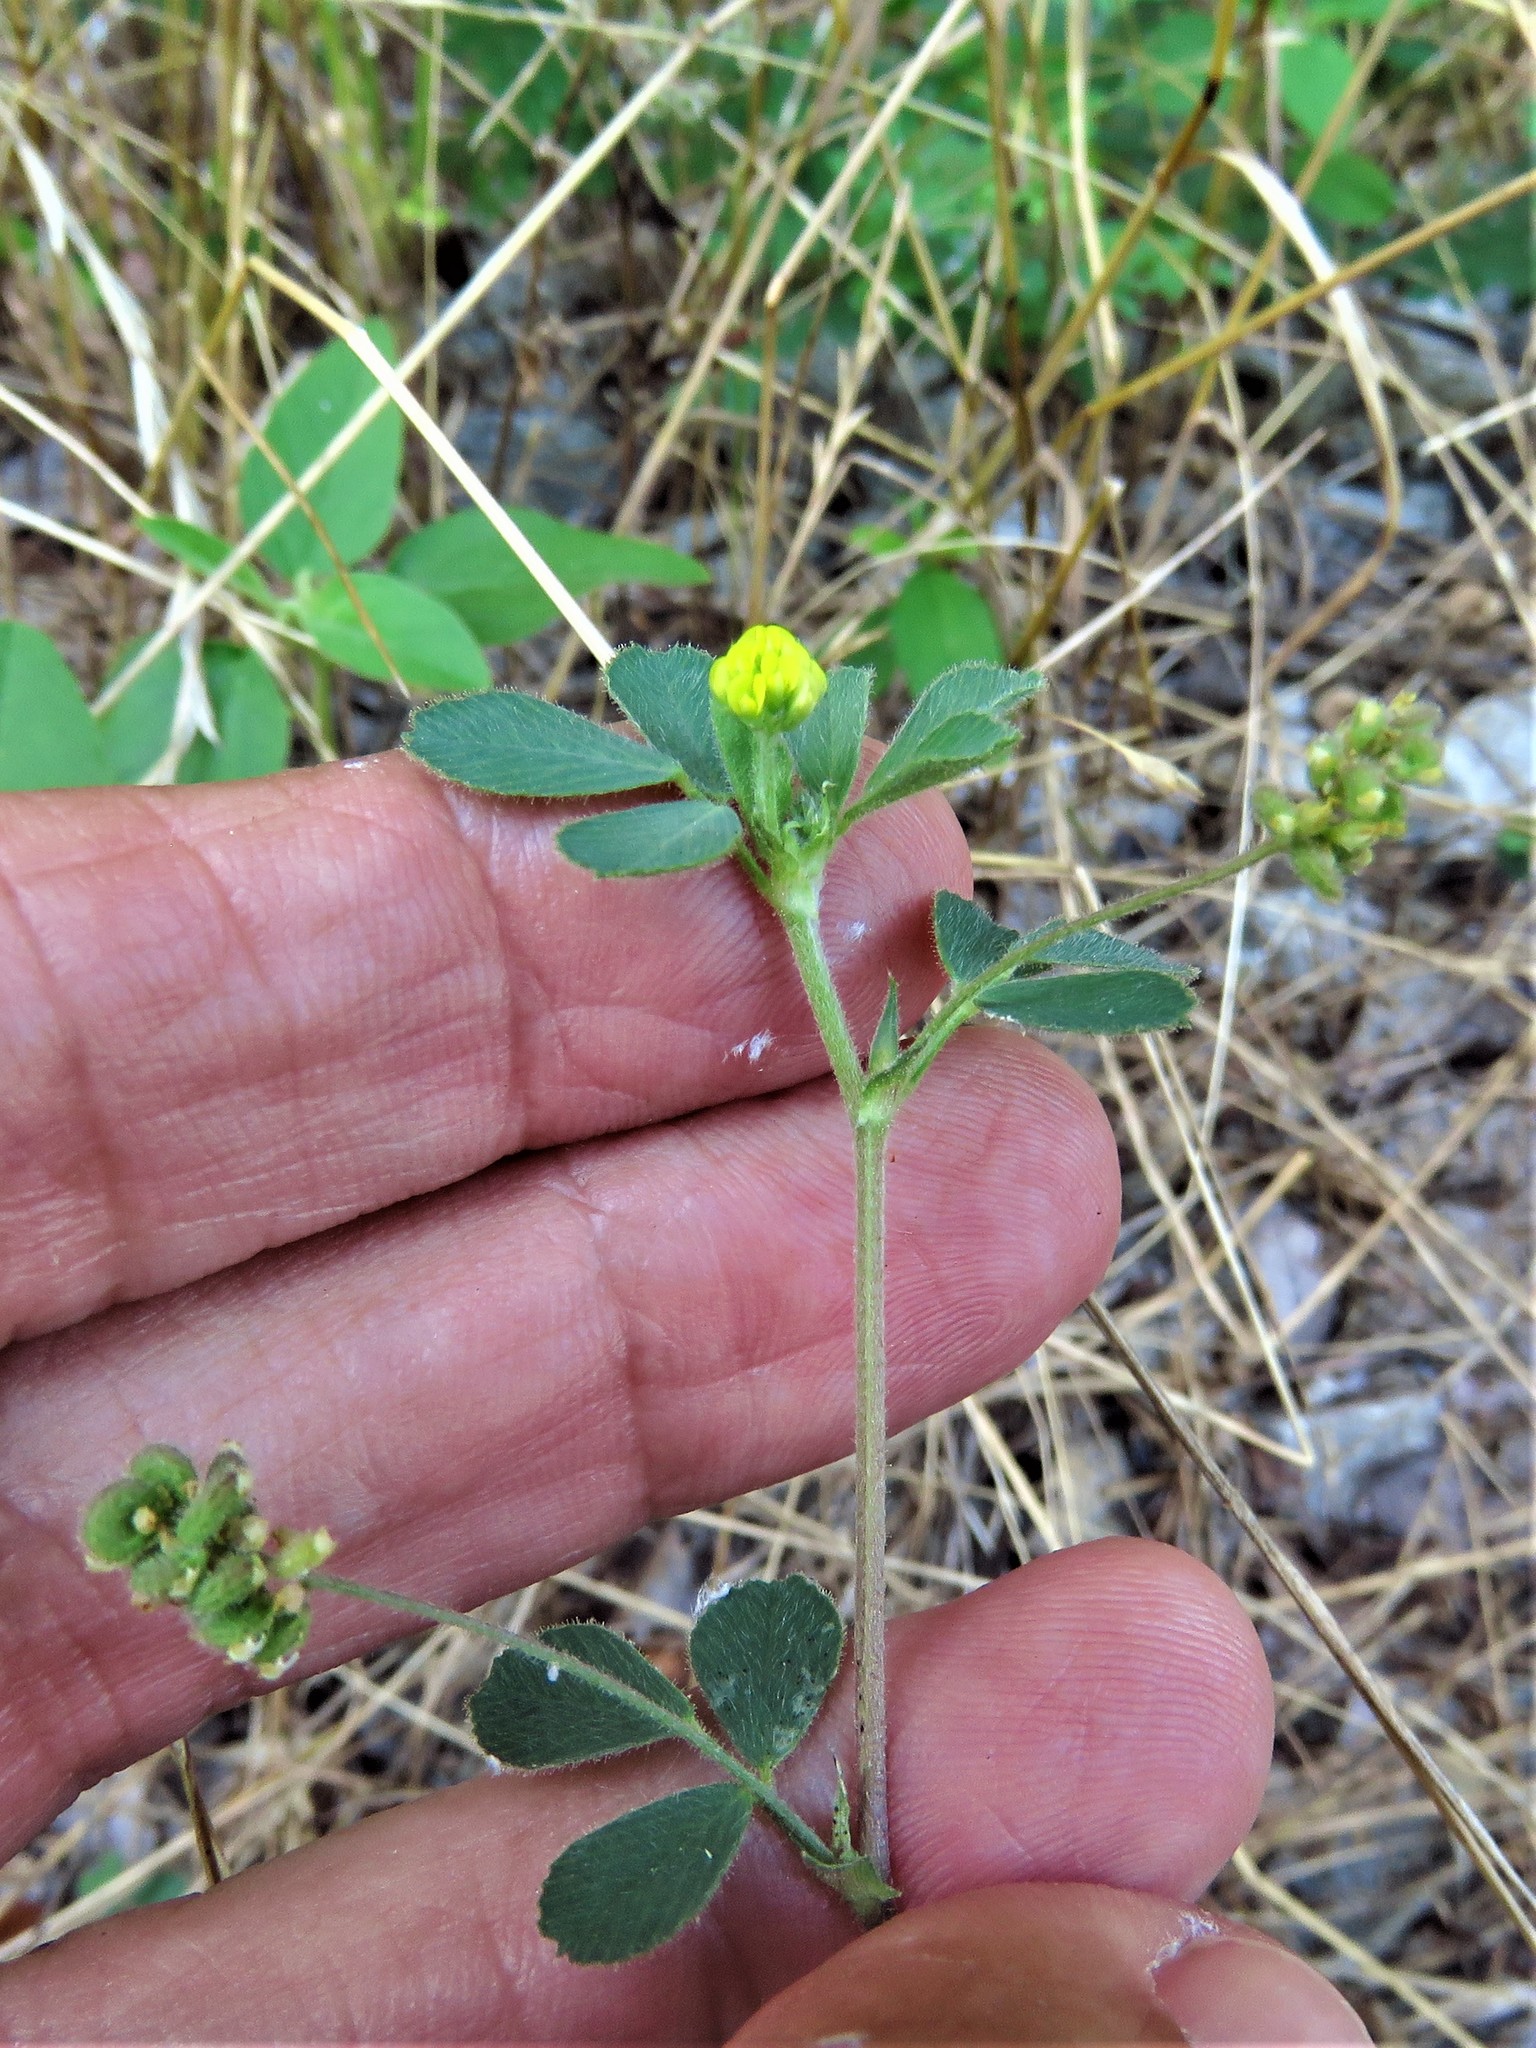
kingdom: Plantae
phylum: Tracheophyta
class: Magnoliopsida
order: Fabales
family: Fabaceae
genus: Medicago
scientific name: Medicago lupulina
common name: Black medick
